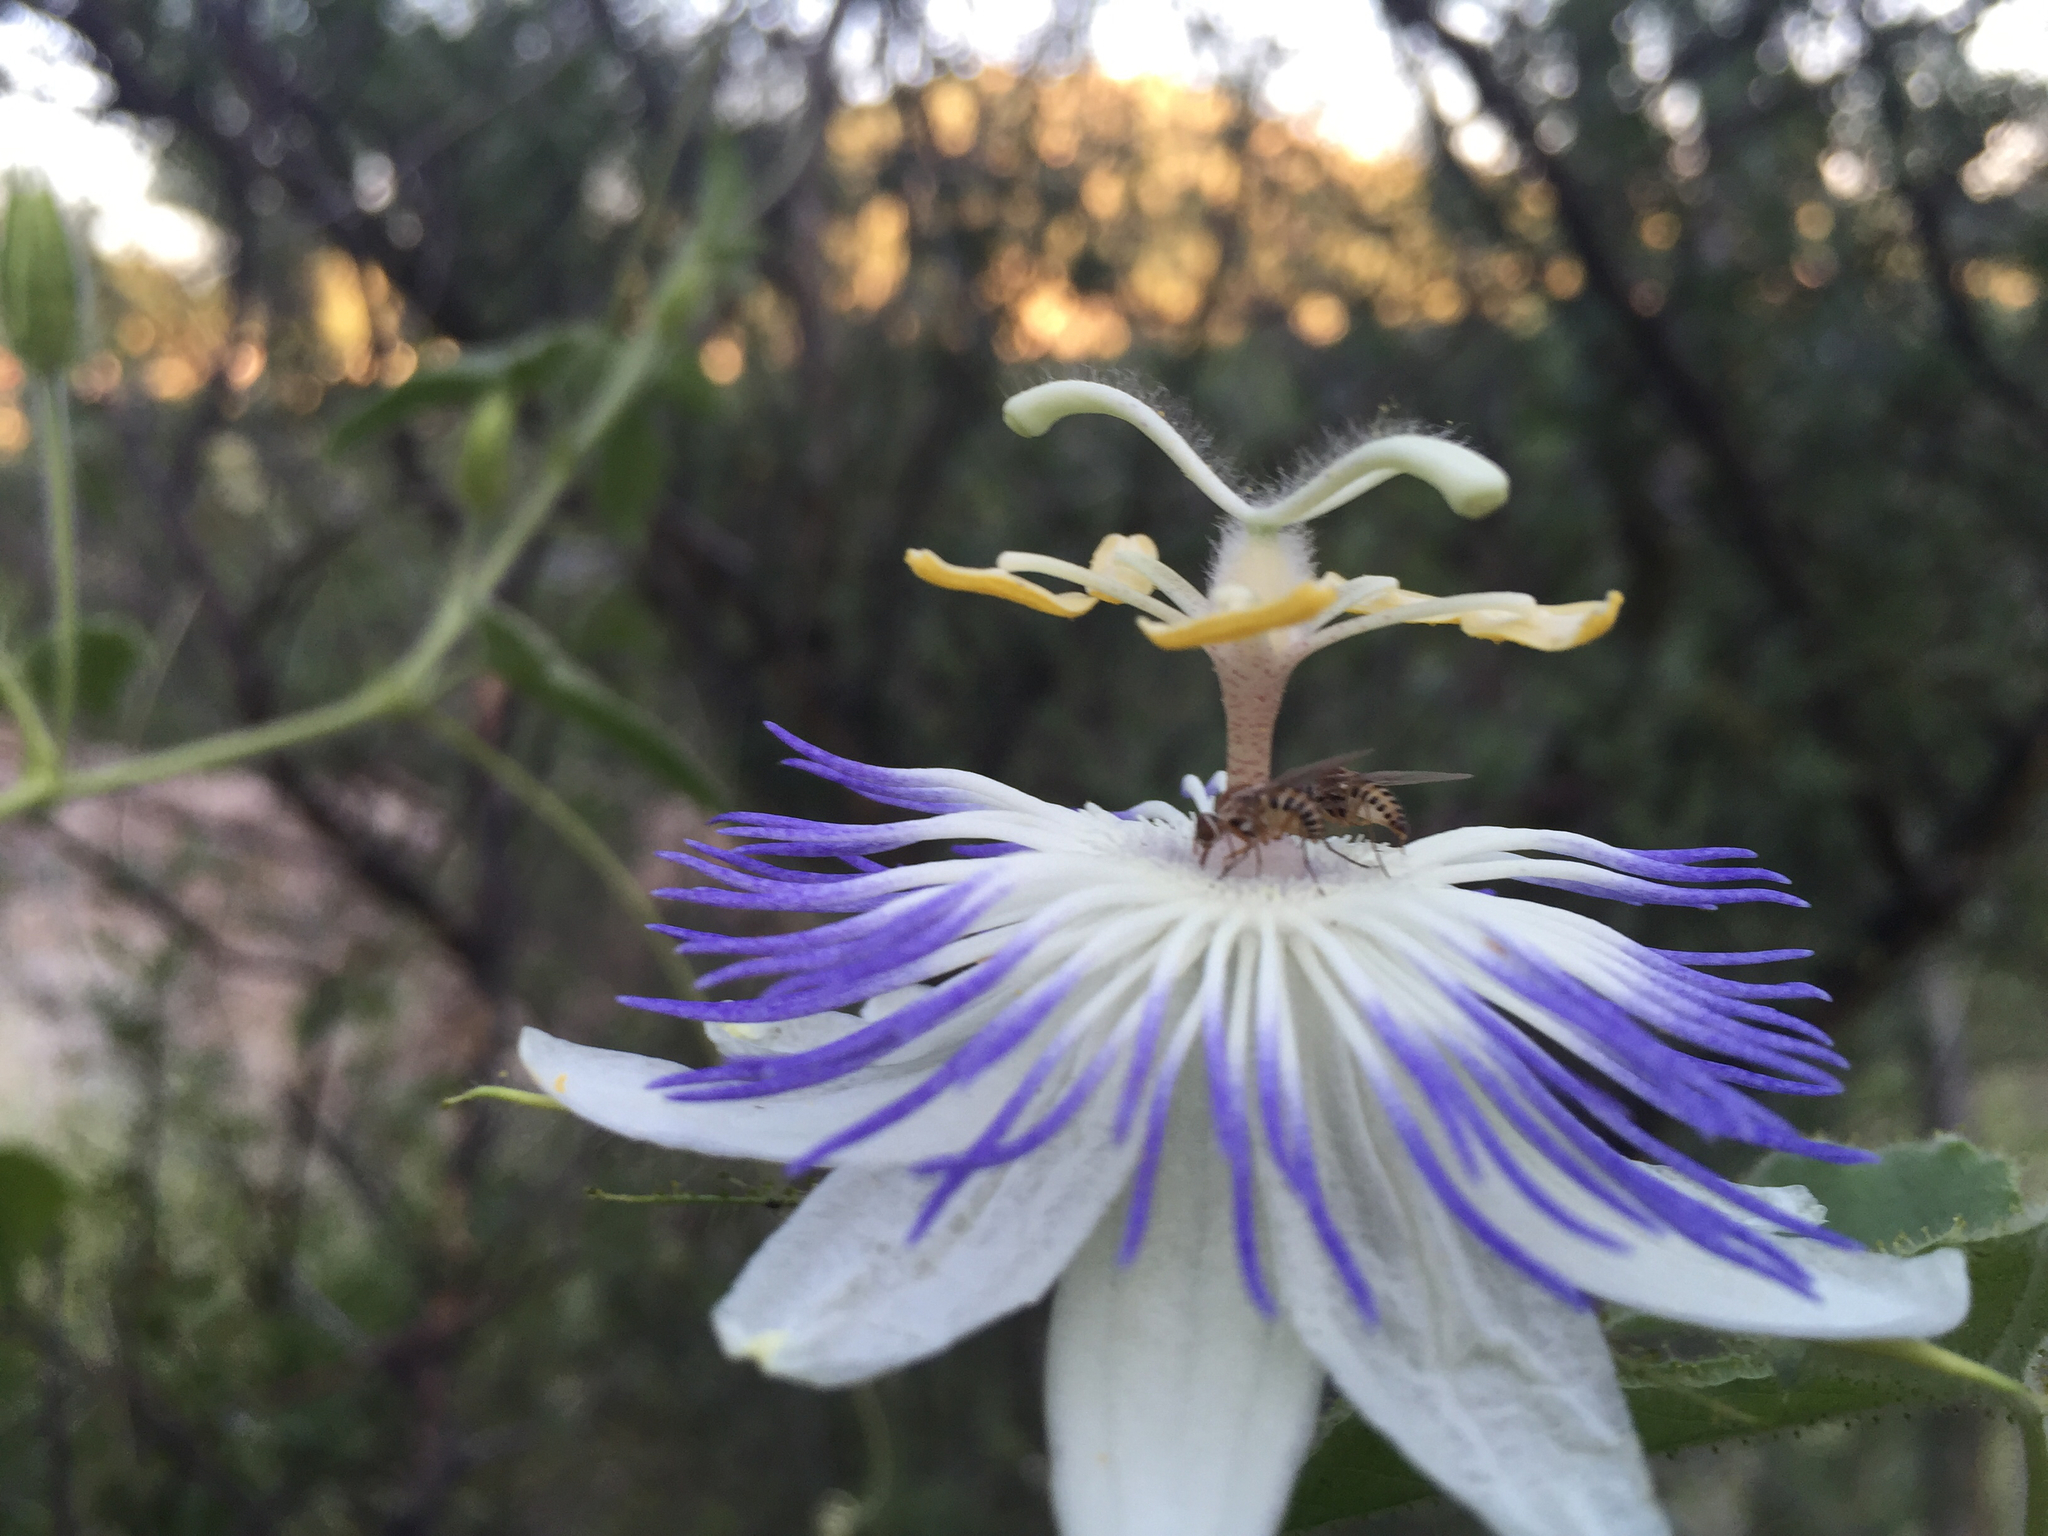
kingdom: Plantae
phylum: Tracheophyta
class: Magnoliopsida
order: Malpighiales
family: Passifloraceae
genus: Passiflora
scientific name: Passiflora foetida
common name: Fetid passionflower
